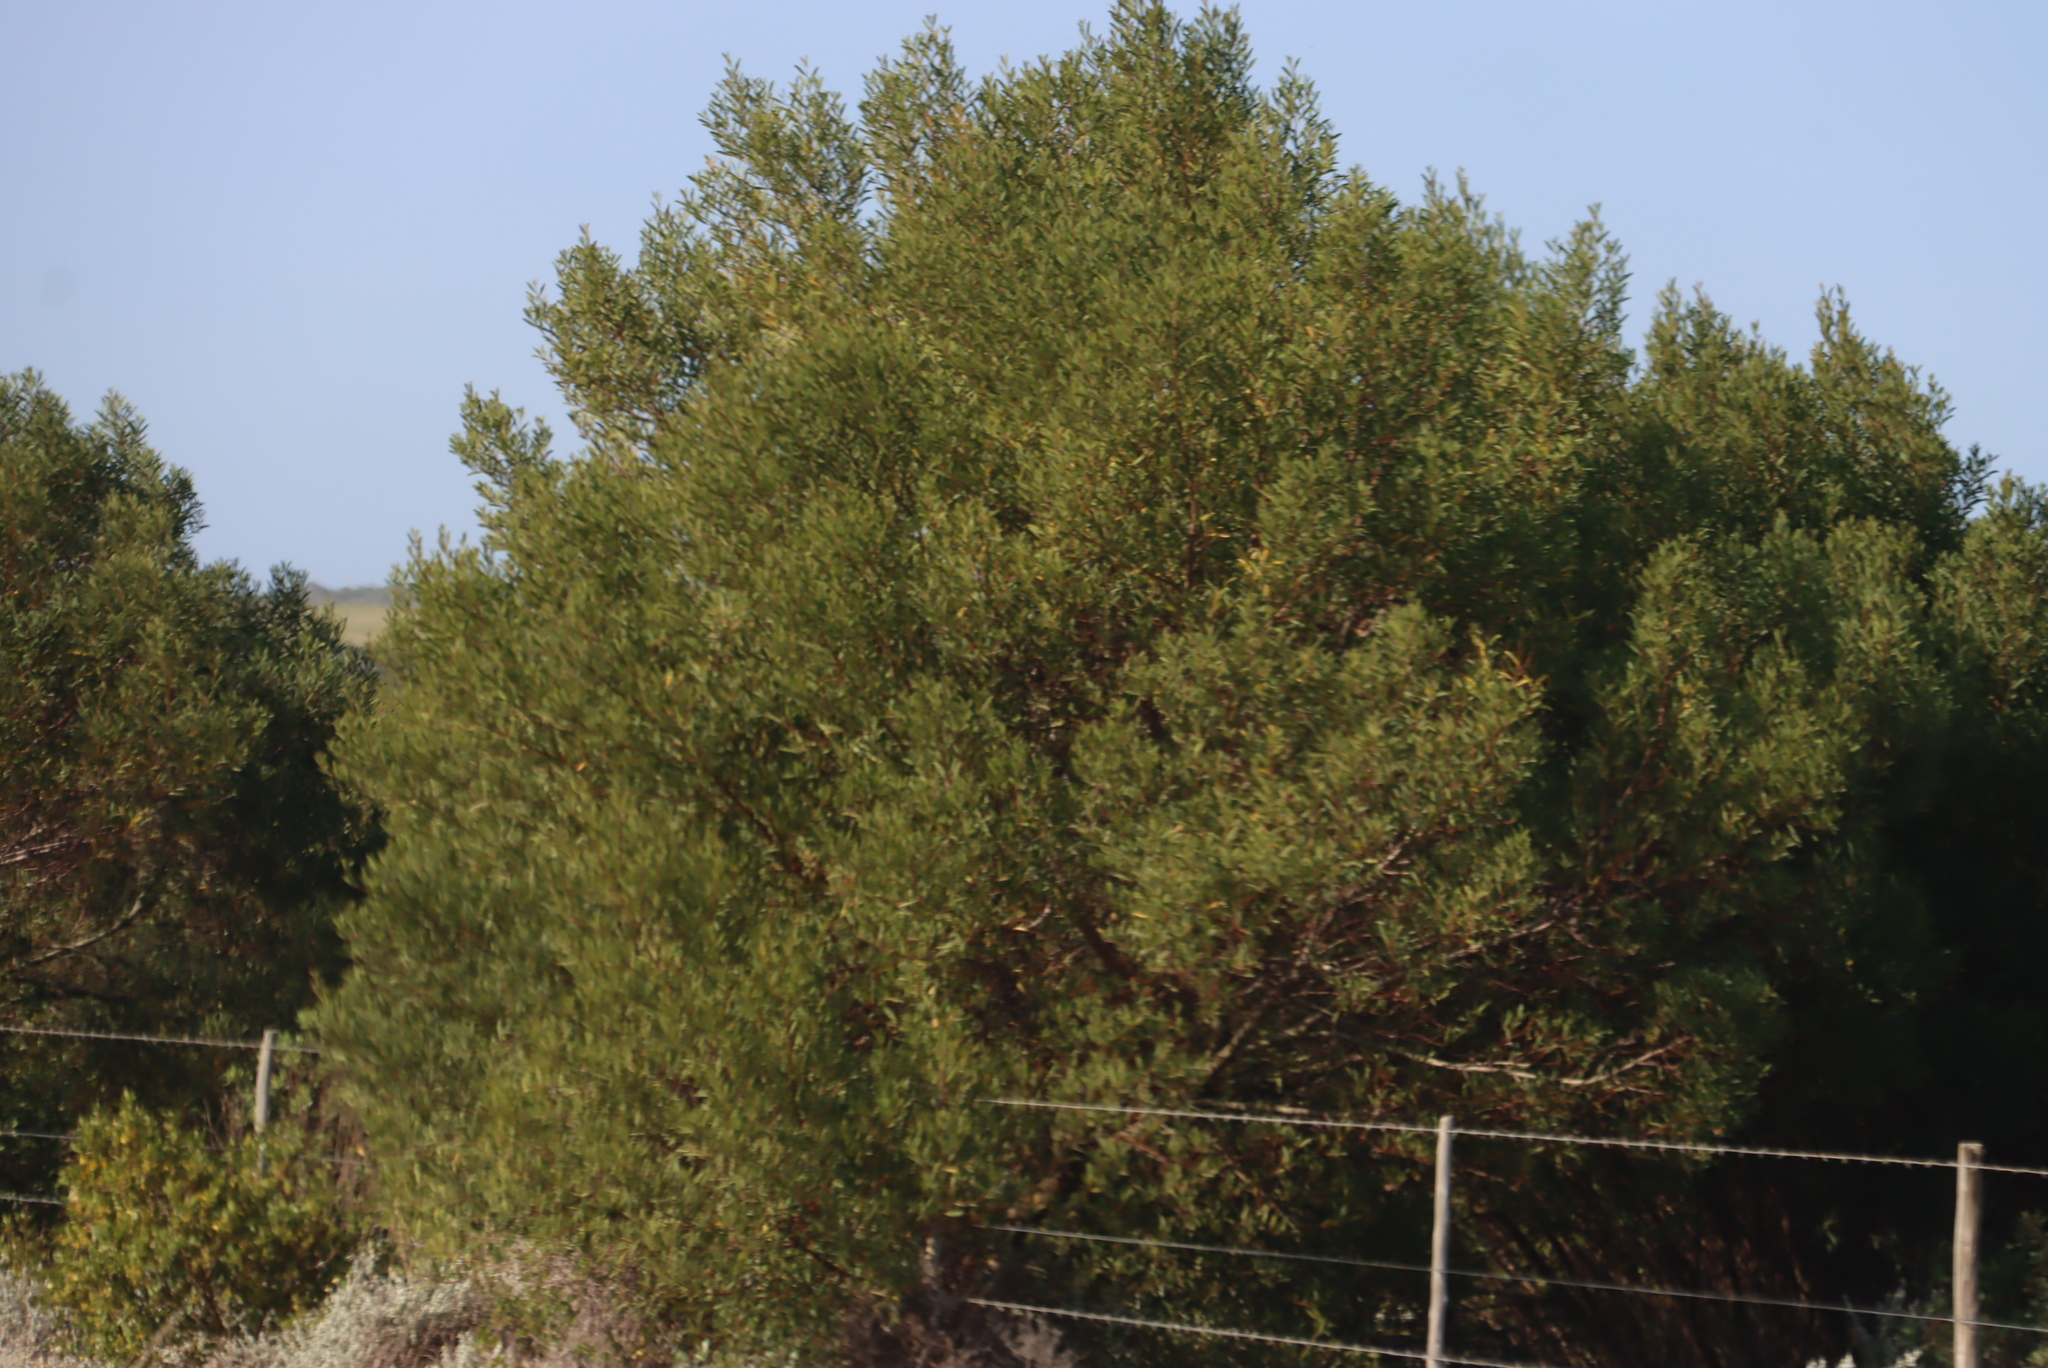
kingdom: Plantae
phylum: Tracheophyta
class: Magnoliopsida
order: Fabales
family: Fabaceae
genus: Acacia
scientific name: Acacia cyclops
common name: Coastal wattle
